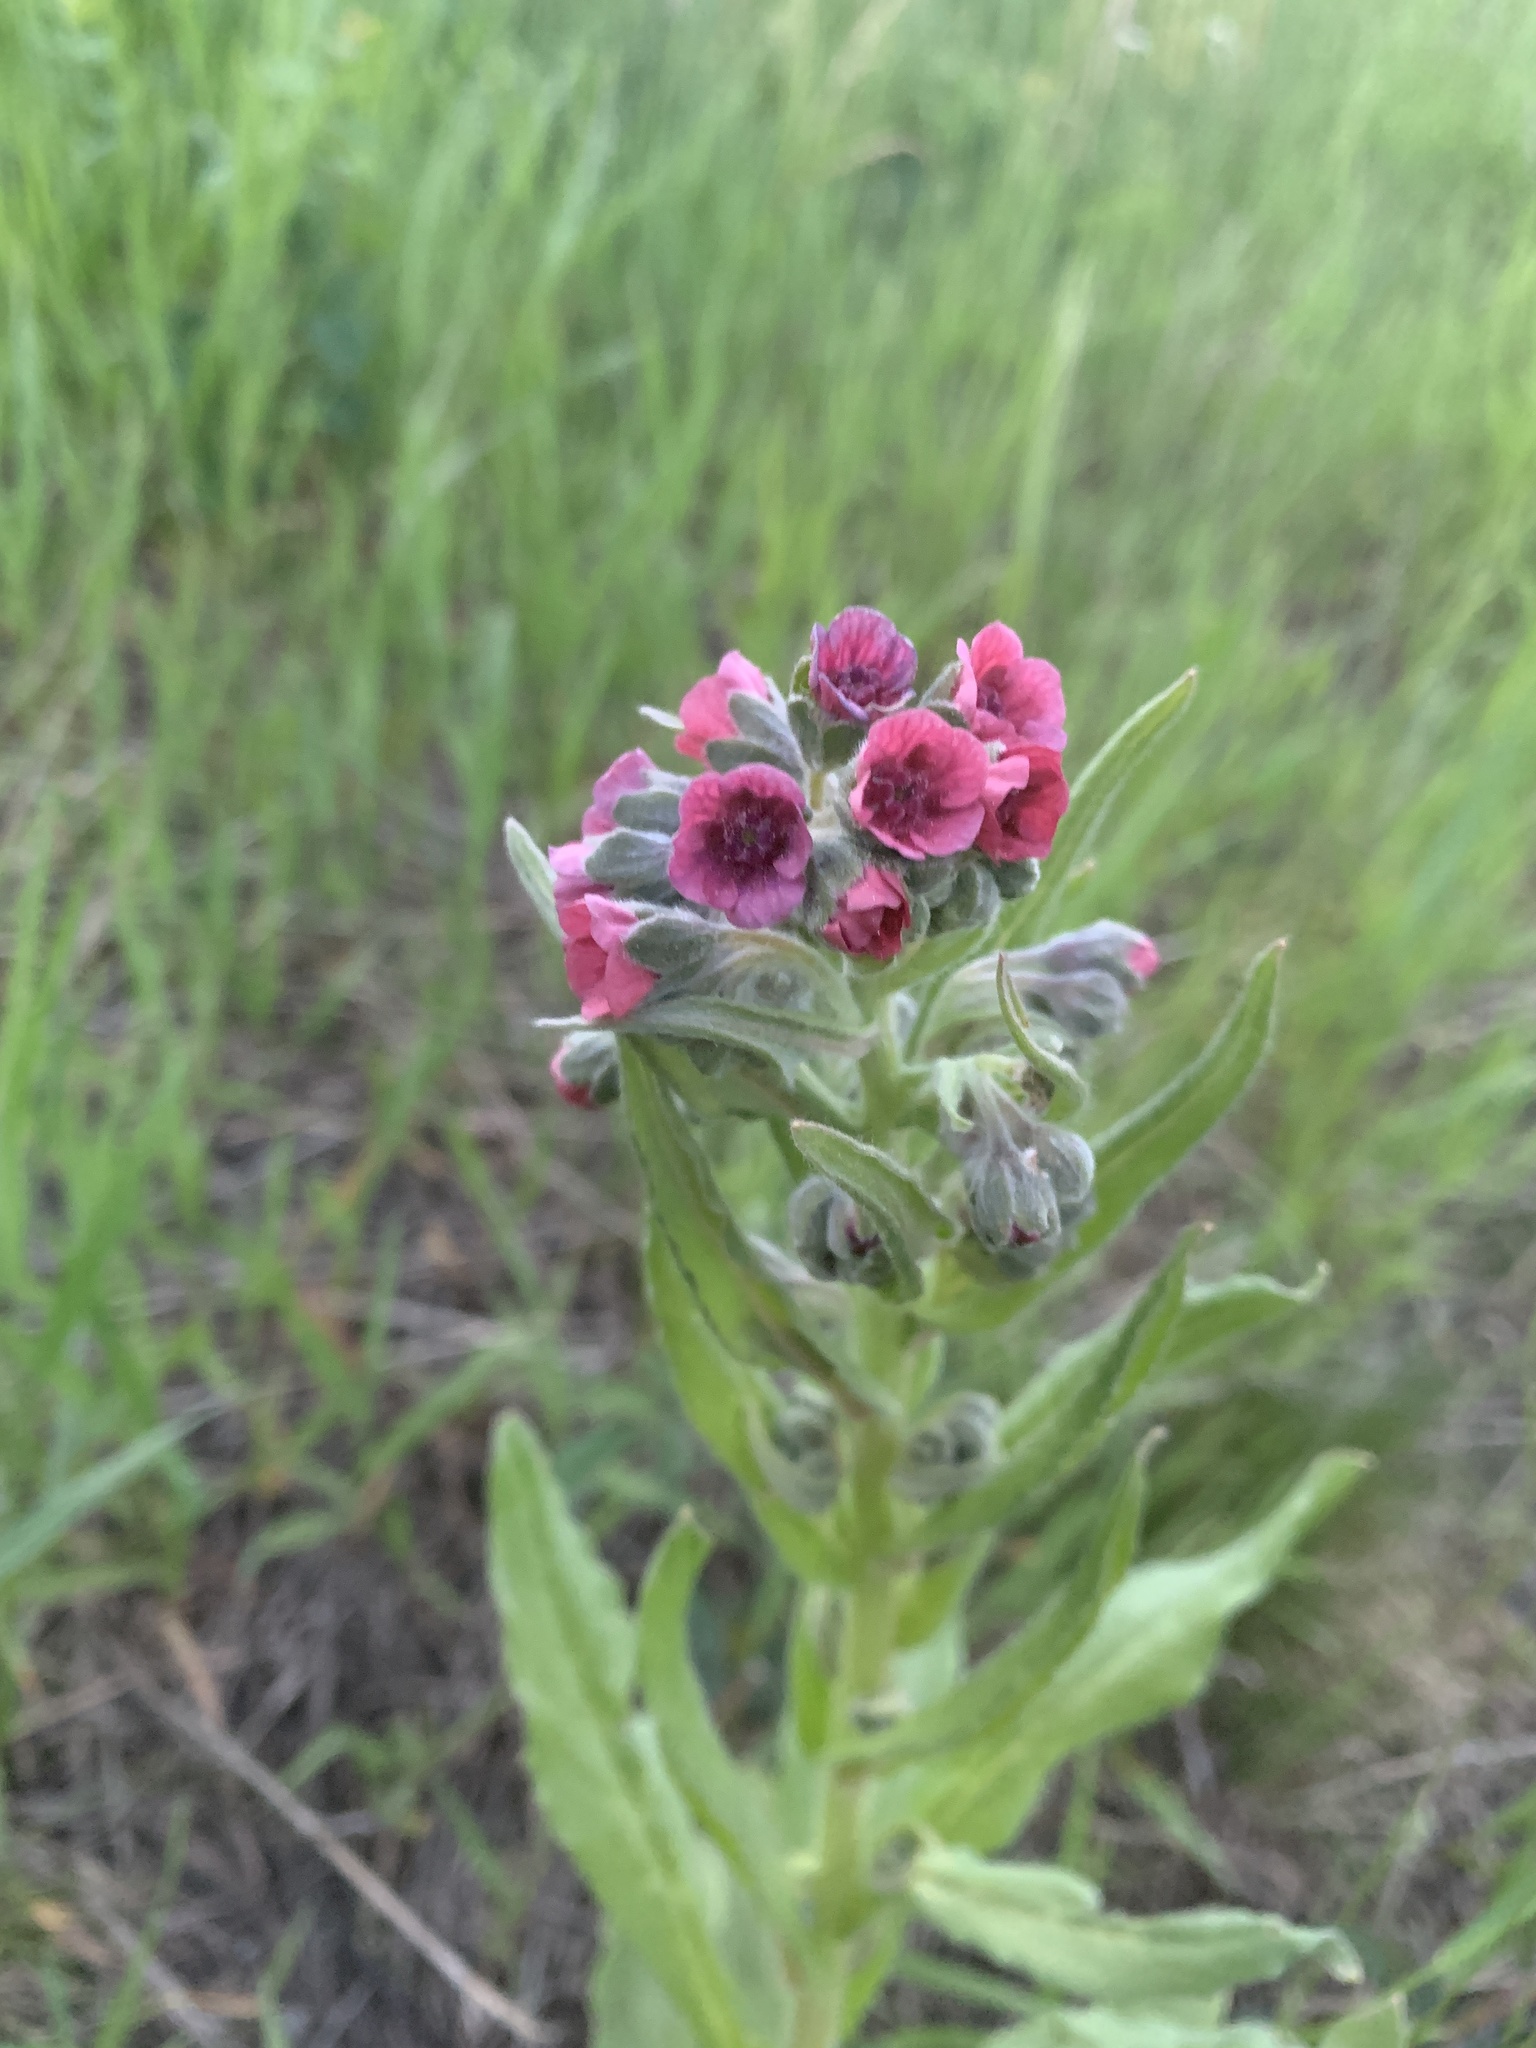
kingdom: Plantae
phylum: Tracheophyta
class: Magnoliopsida
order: Boraginales
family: Boraginaceae
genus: Cynoglossum
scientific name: Cynoglossum officinale
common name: Hound's-tongue
